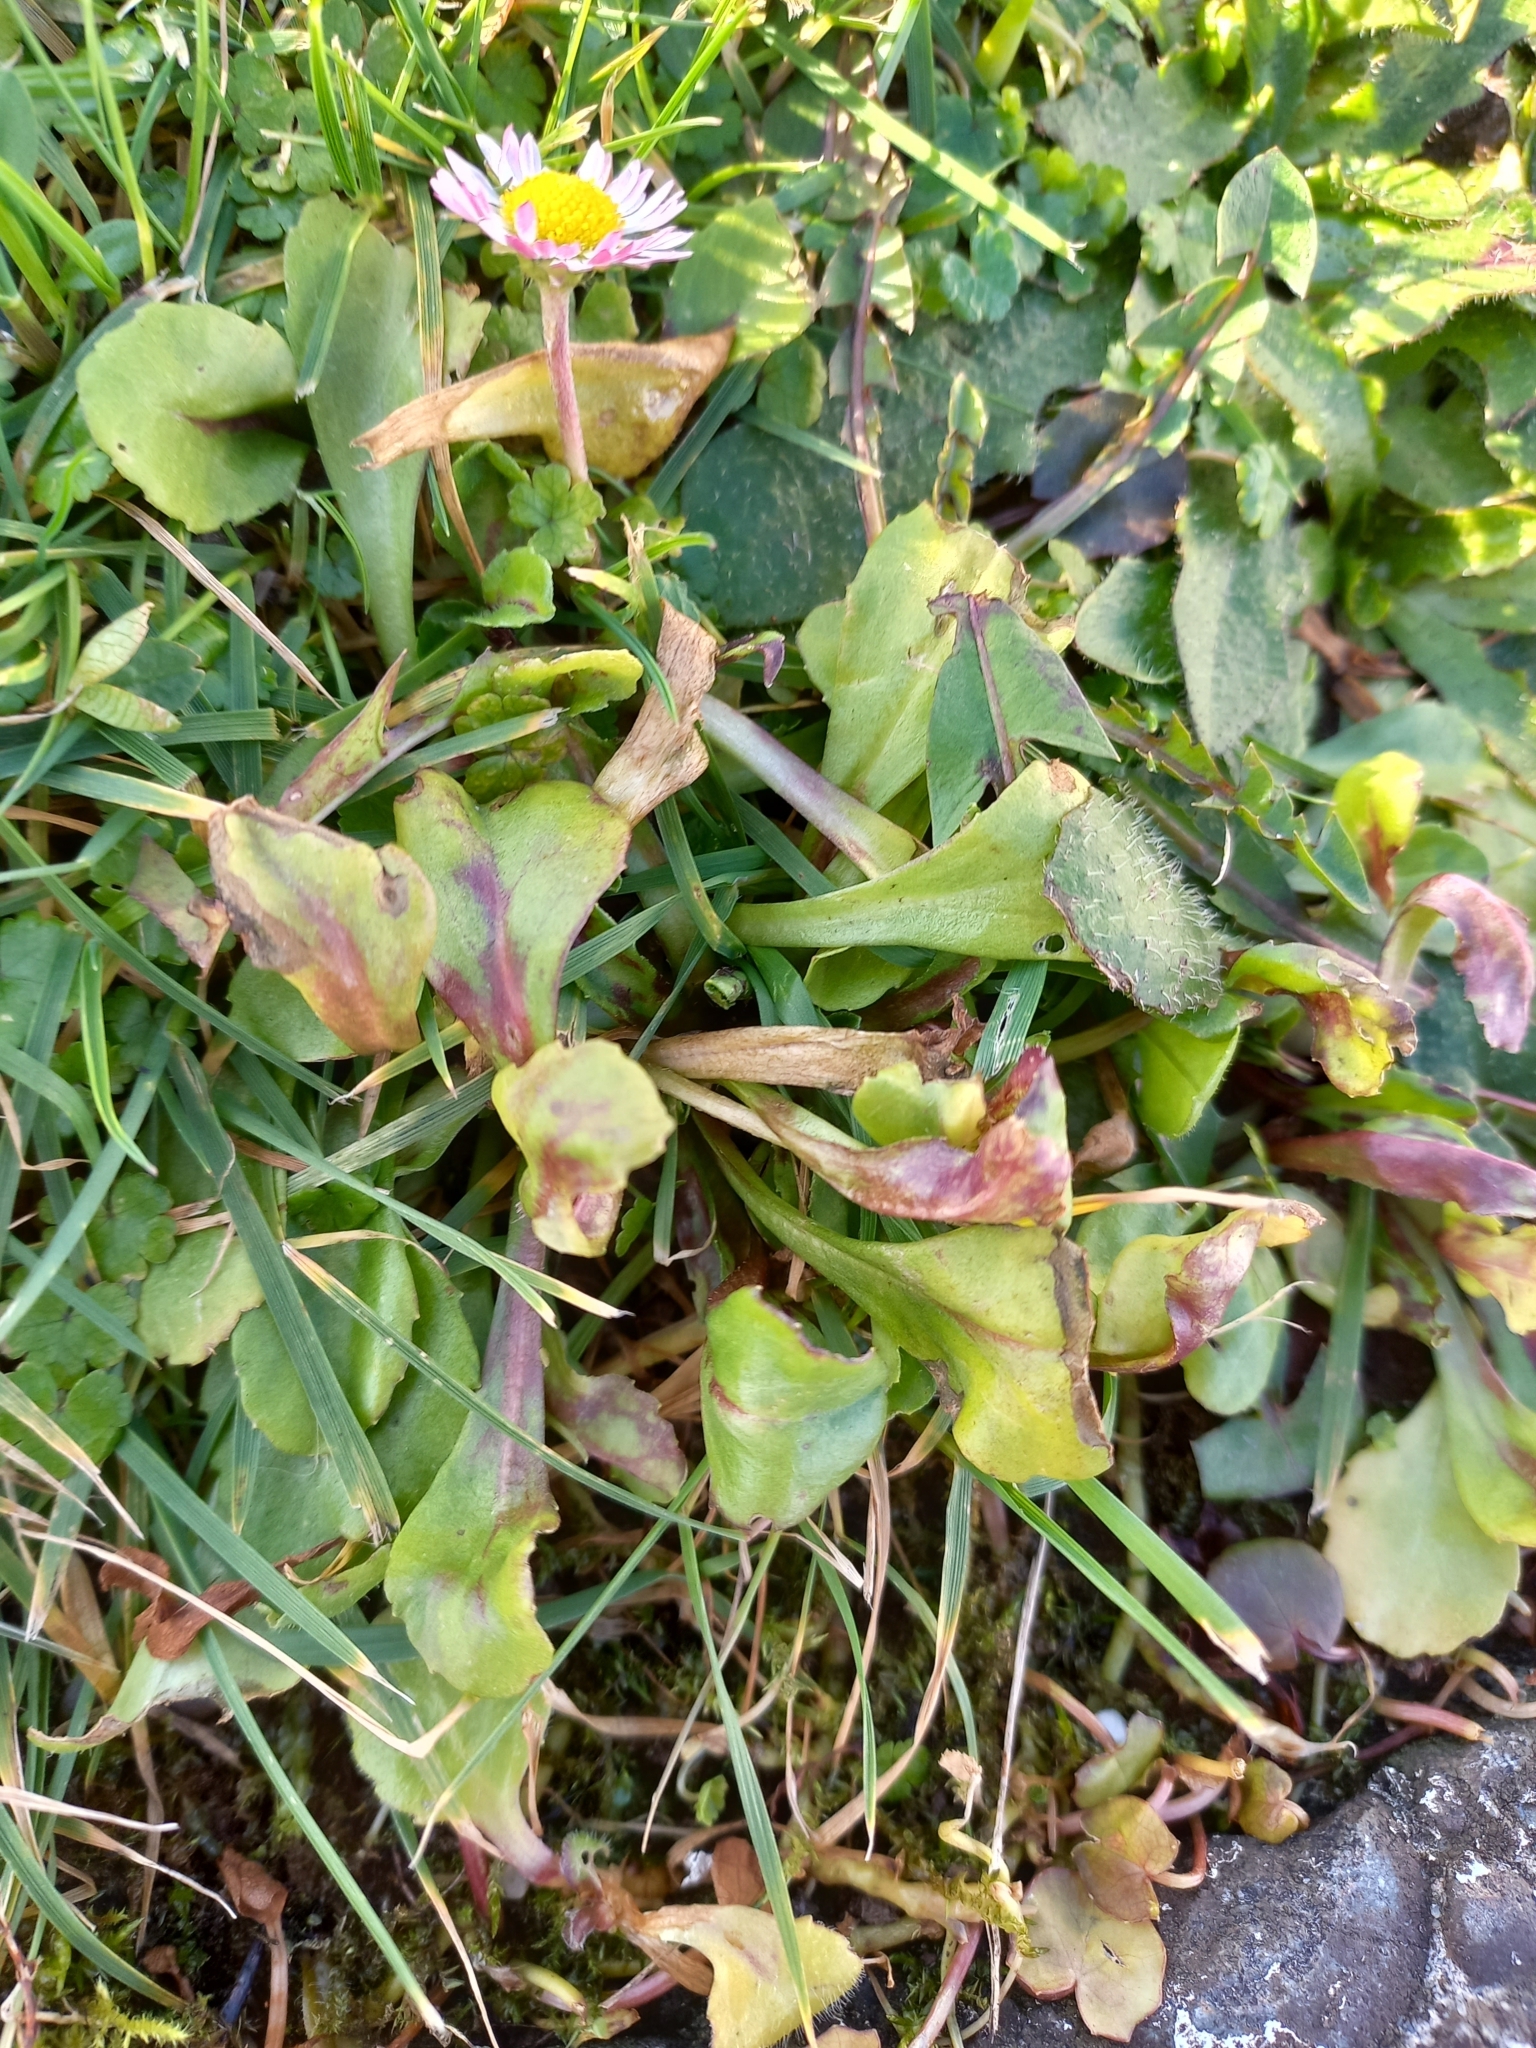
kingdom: Plantae
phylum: Tracheophyta
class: Magnoliopsida
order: Asterales
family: Asteraceae
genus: Bellis
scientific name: Bellis perennis
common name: Lawndaisy
